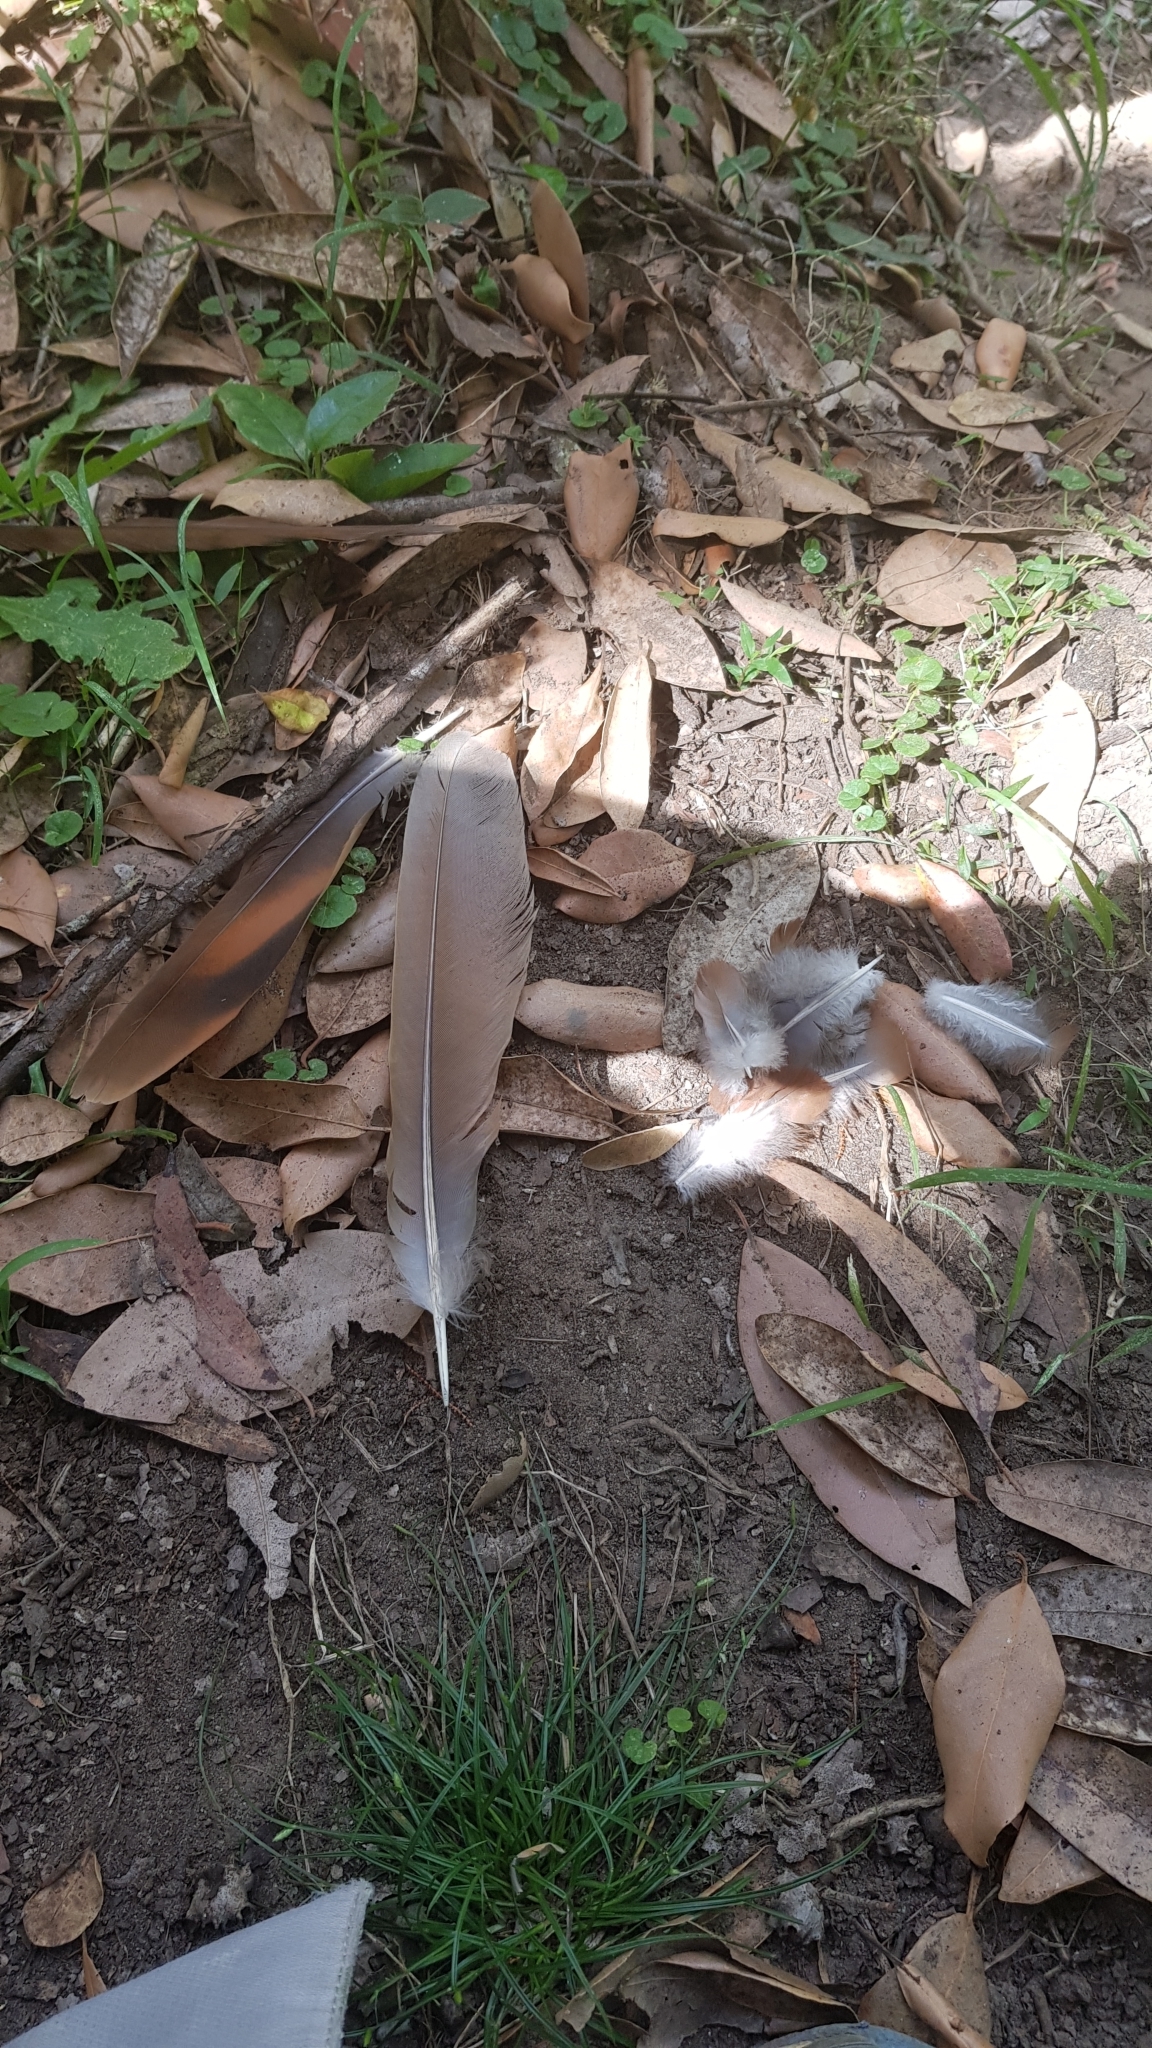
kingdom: Animalia
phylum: Chordata
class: Aves
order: Columbiformes
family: Columbidae
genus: Macropygia
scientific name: Macropygia phasianella
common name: Brown cuckoo-dove
